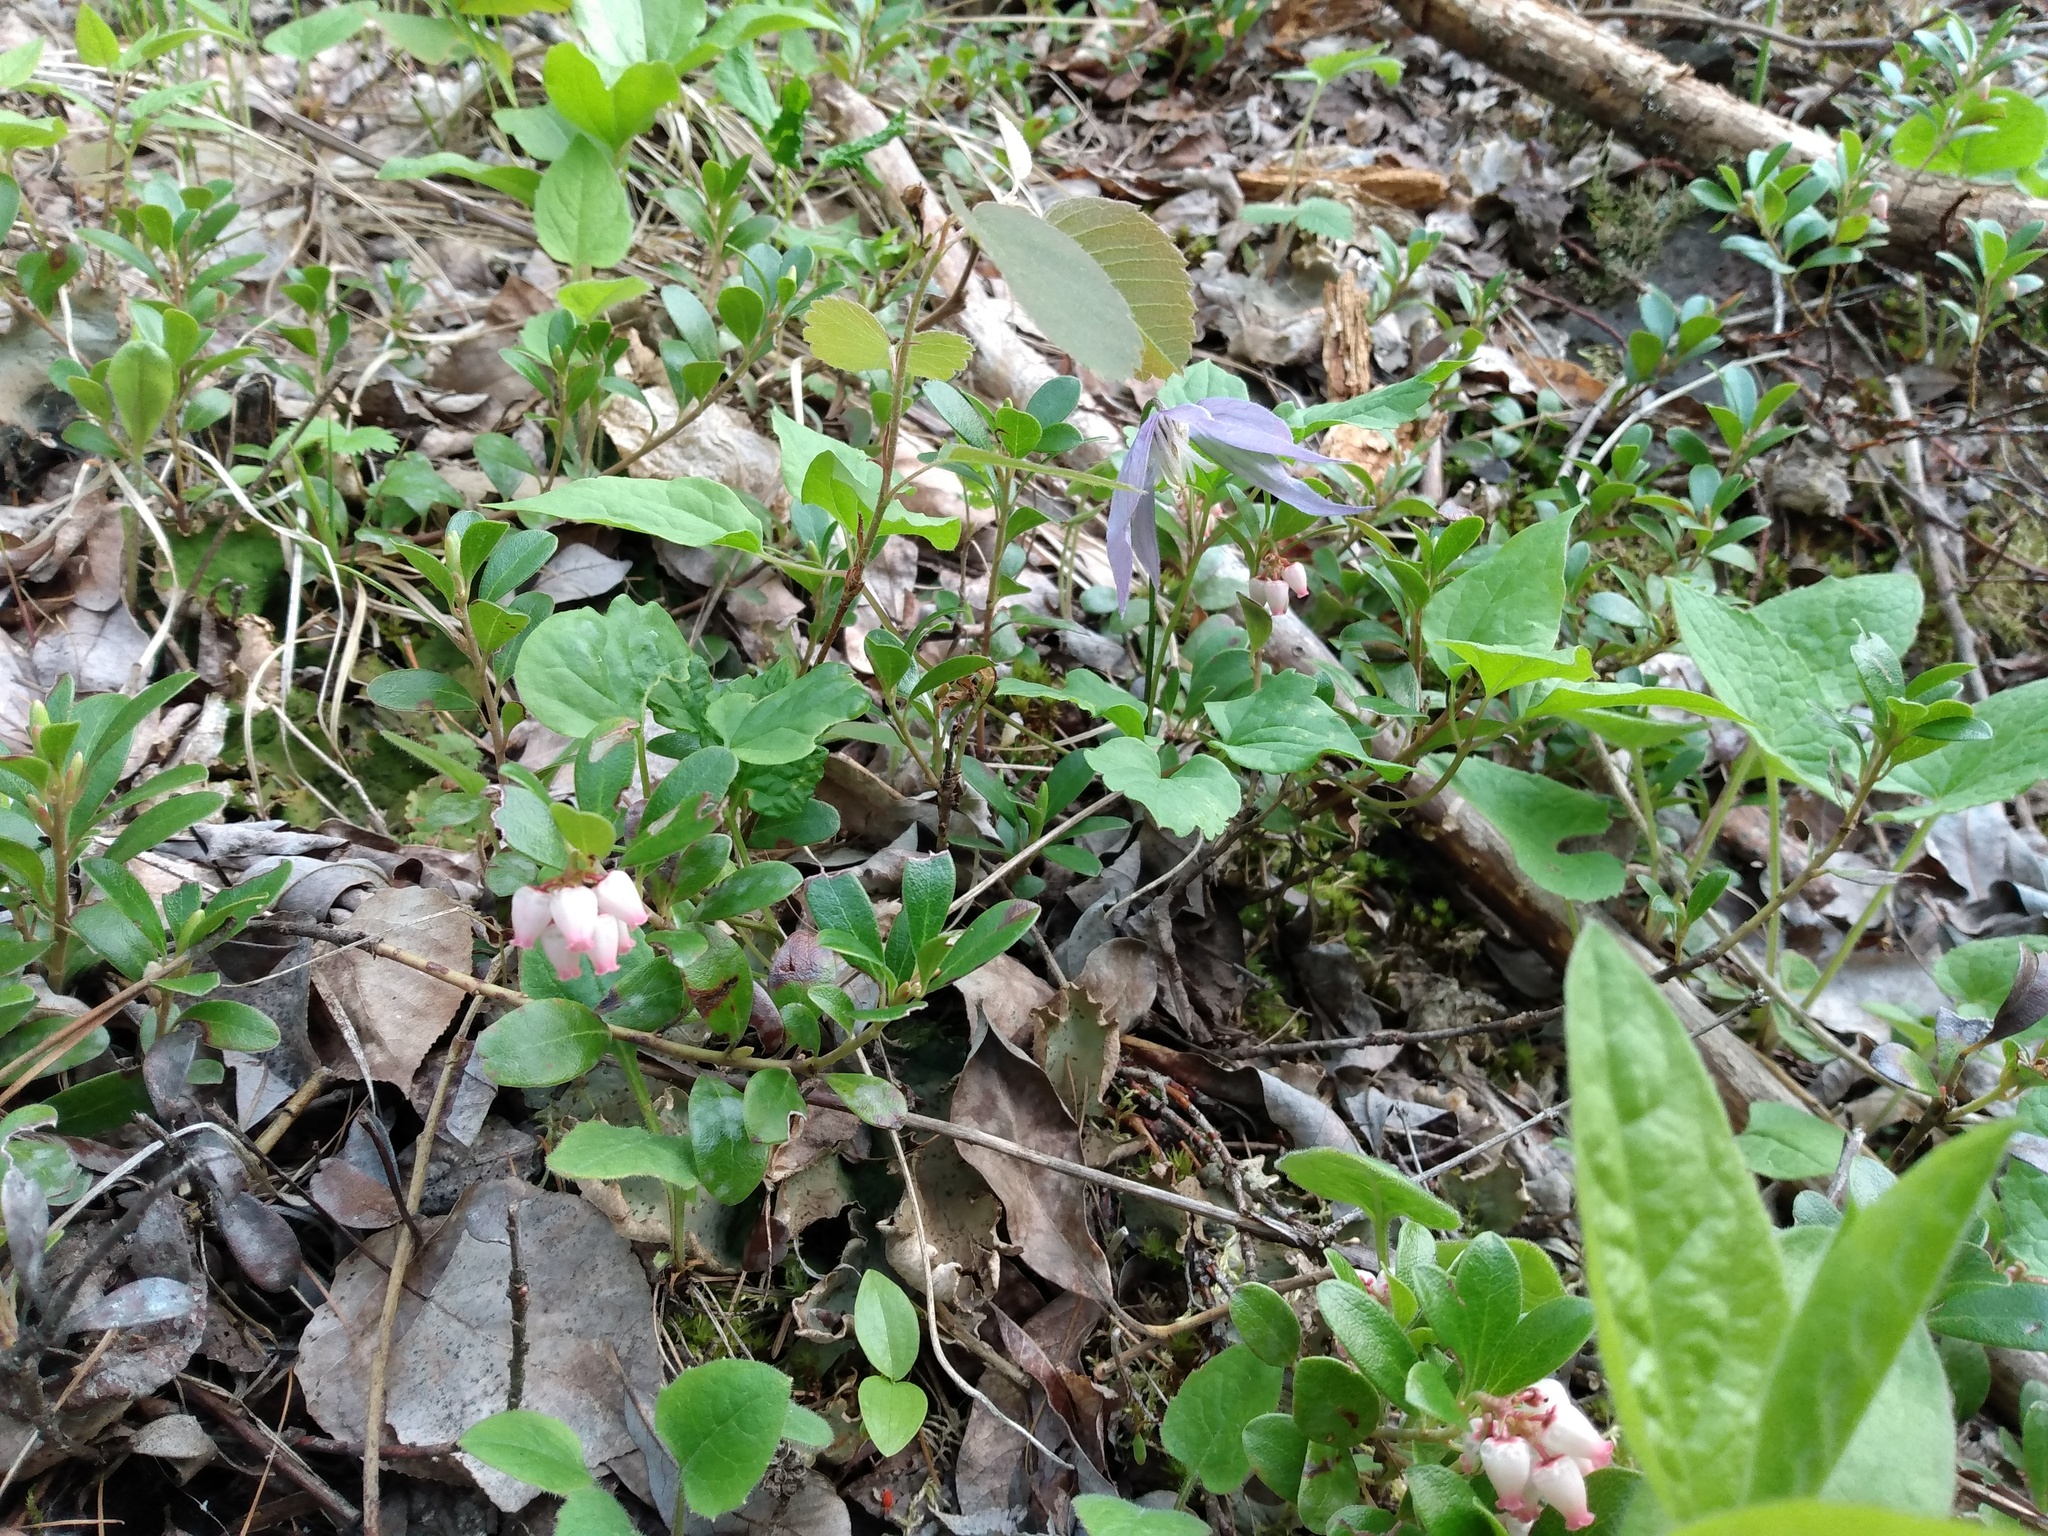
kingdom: Plantae
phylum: Tracheophyta
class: Magnoliopsida
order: Ericales
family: Ericaceae
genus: Arctostaphylos
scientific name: Arctostaphylos uva-ursi
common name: Bearberry
